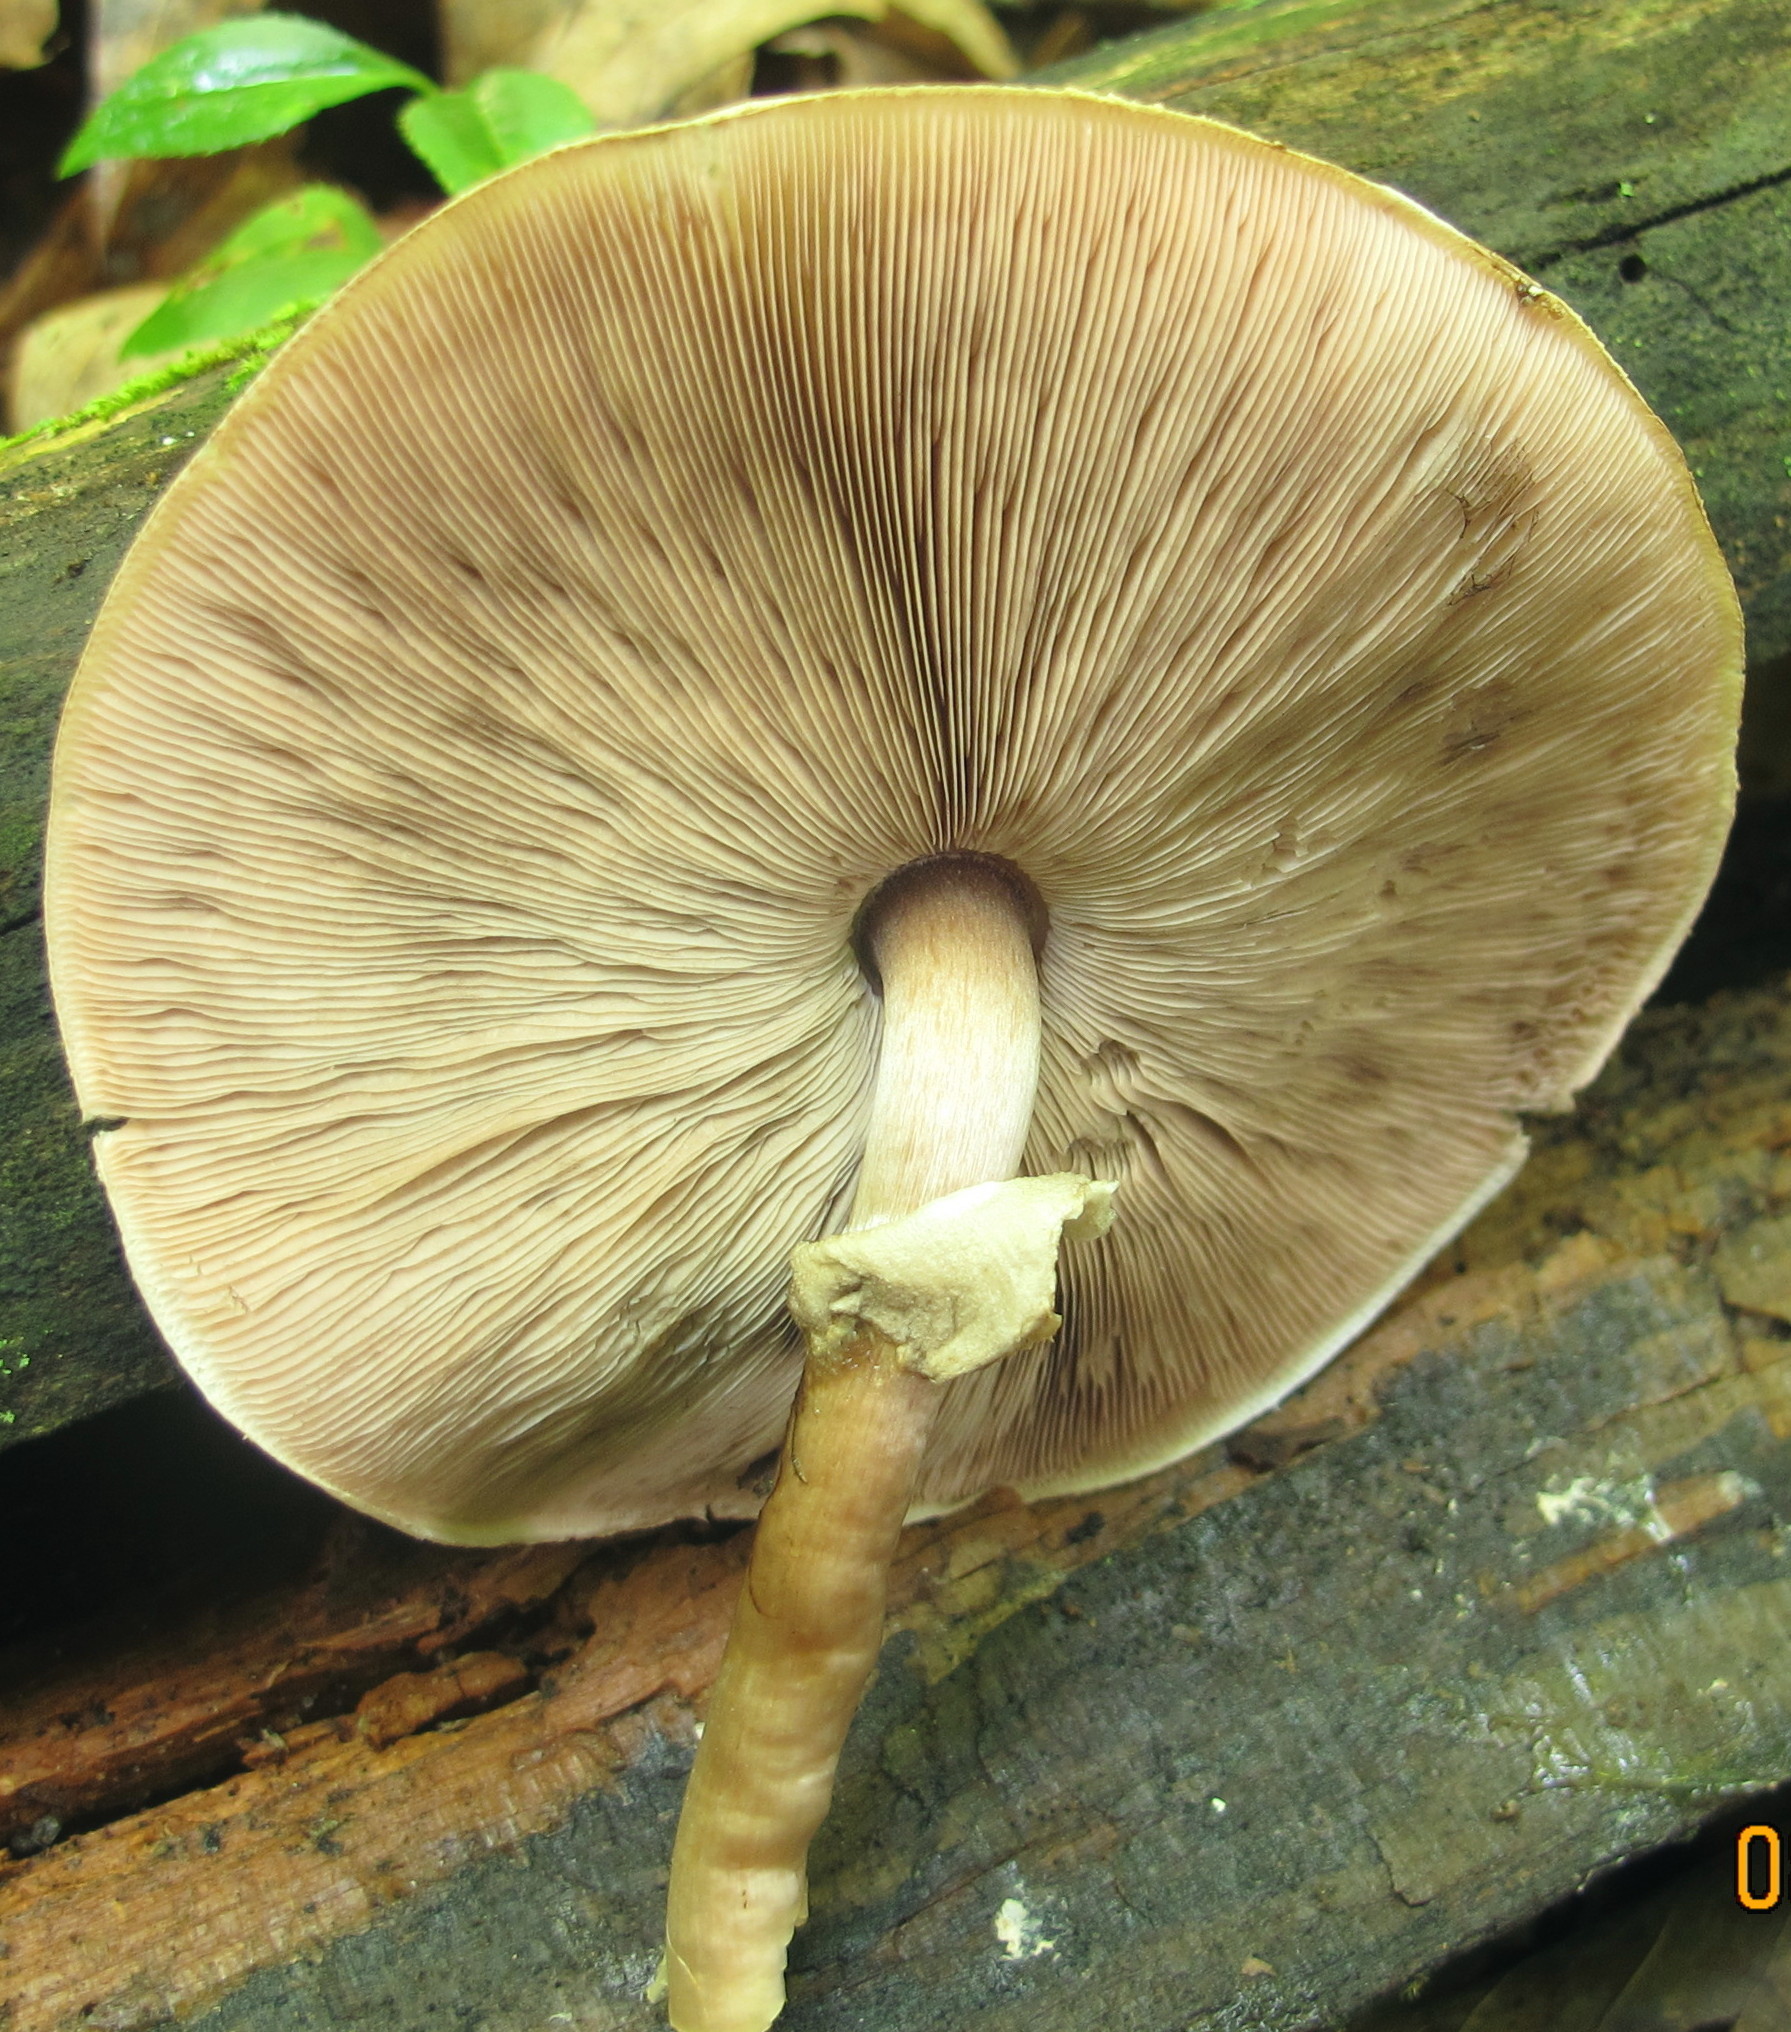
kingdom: Fungi
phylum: Basidiomycota
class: Agaricomycetes
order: Agaricales
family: Agaricaceae
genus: Agaricus
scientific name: Agaricus placomyces
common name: Inky mushroom
